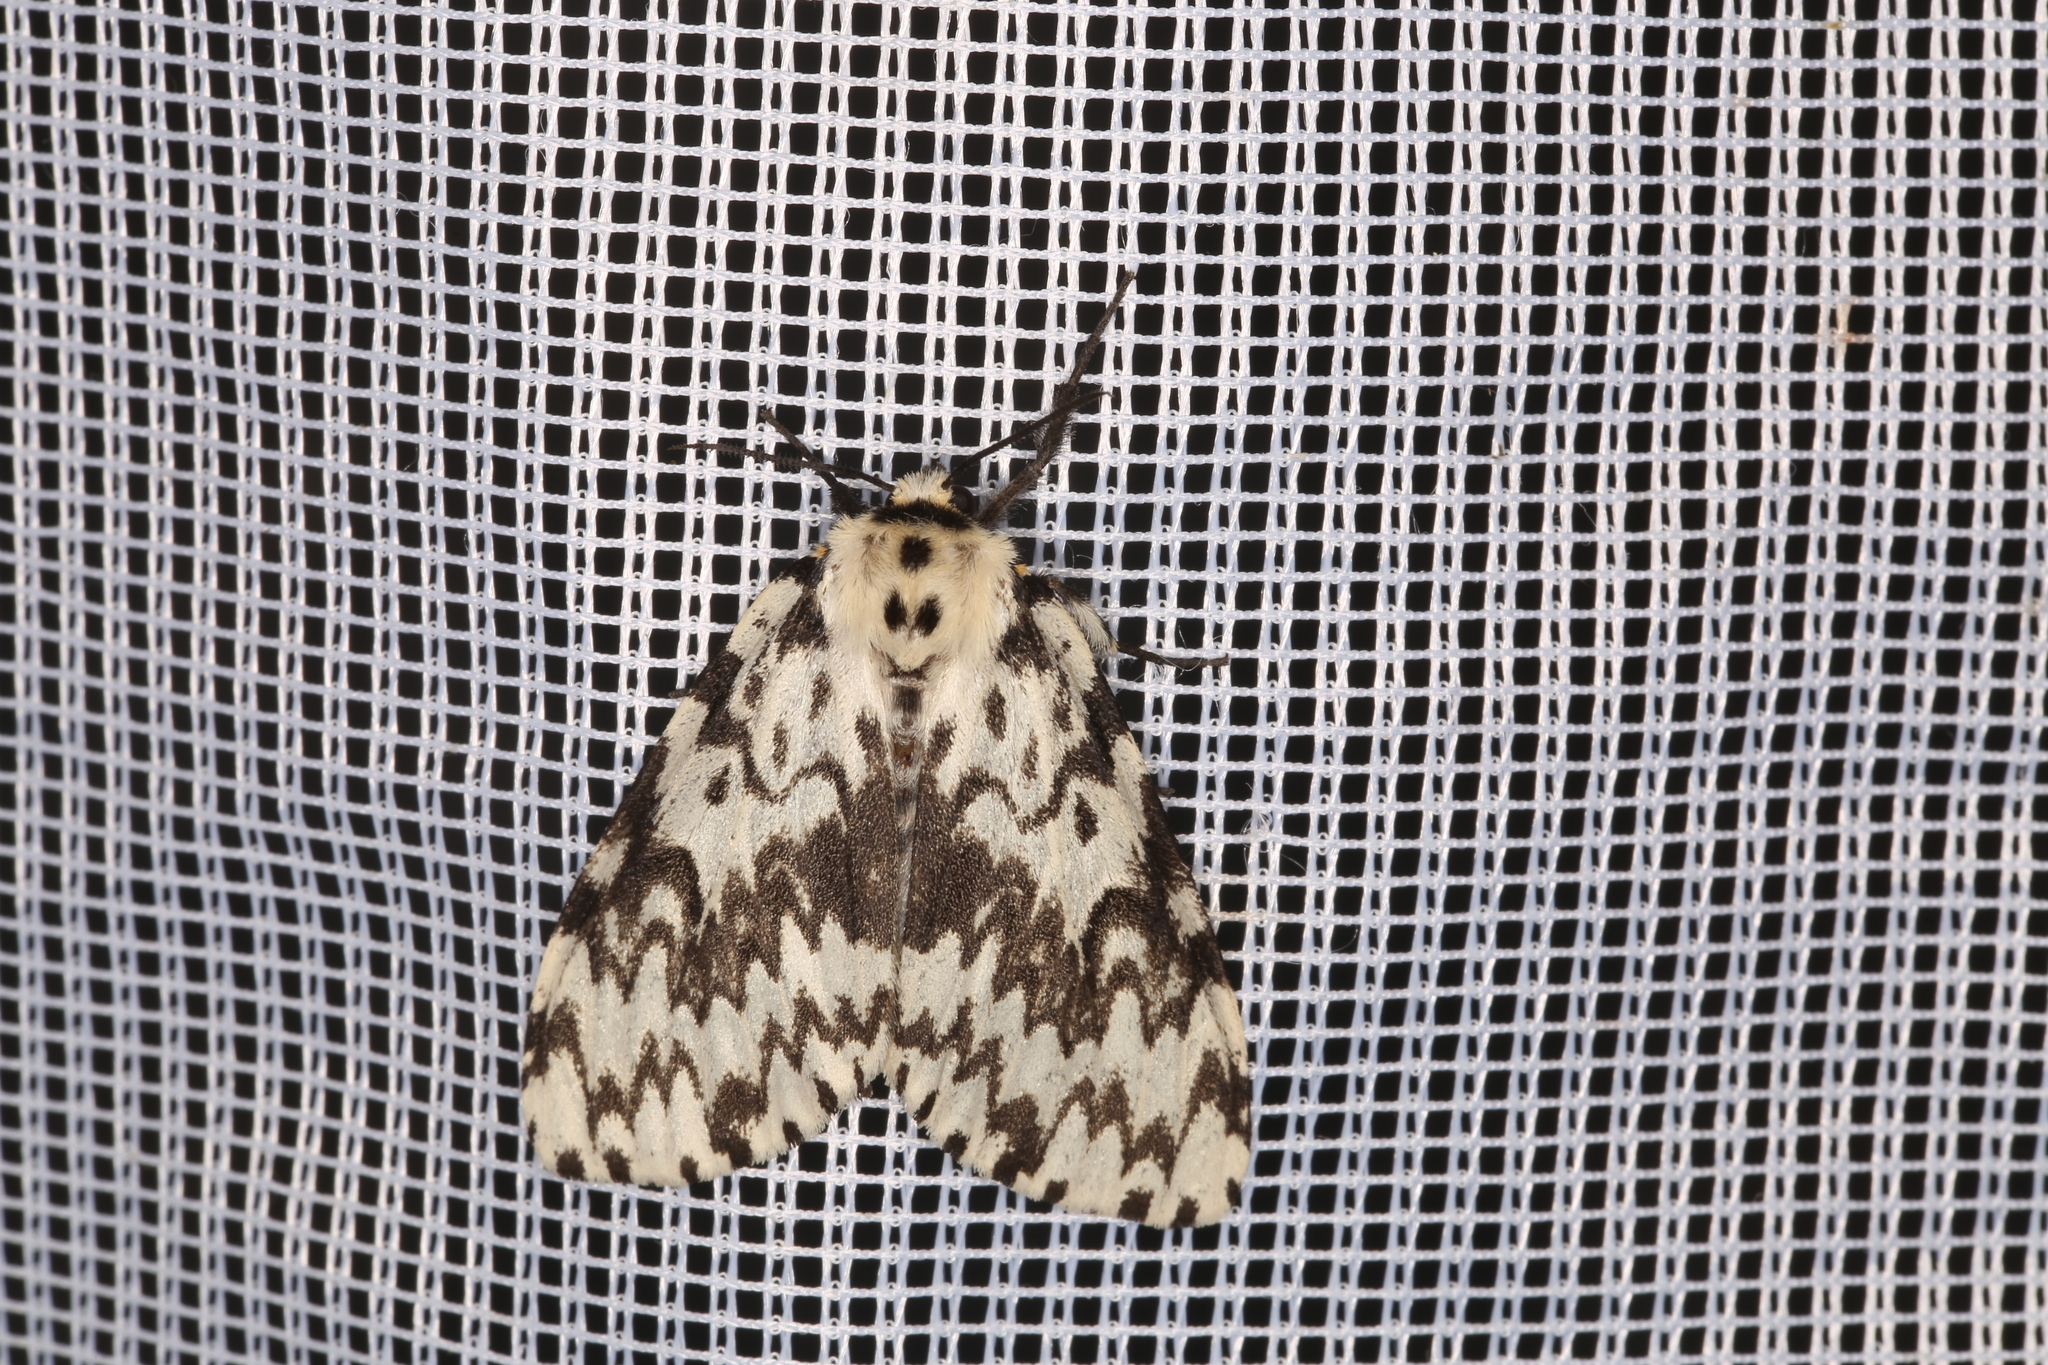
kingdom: Animalia
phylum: Arthropoda
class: Insecta
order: Lepidoptera
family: Erebidae
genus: Lymantria
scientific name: Lymantria monacha
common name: Black arches
